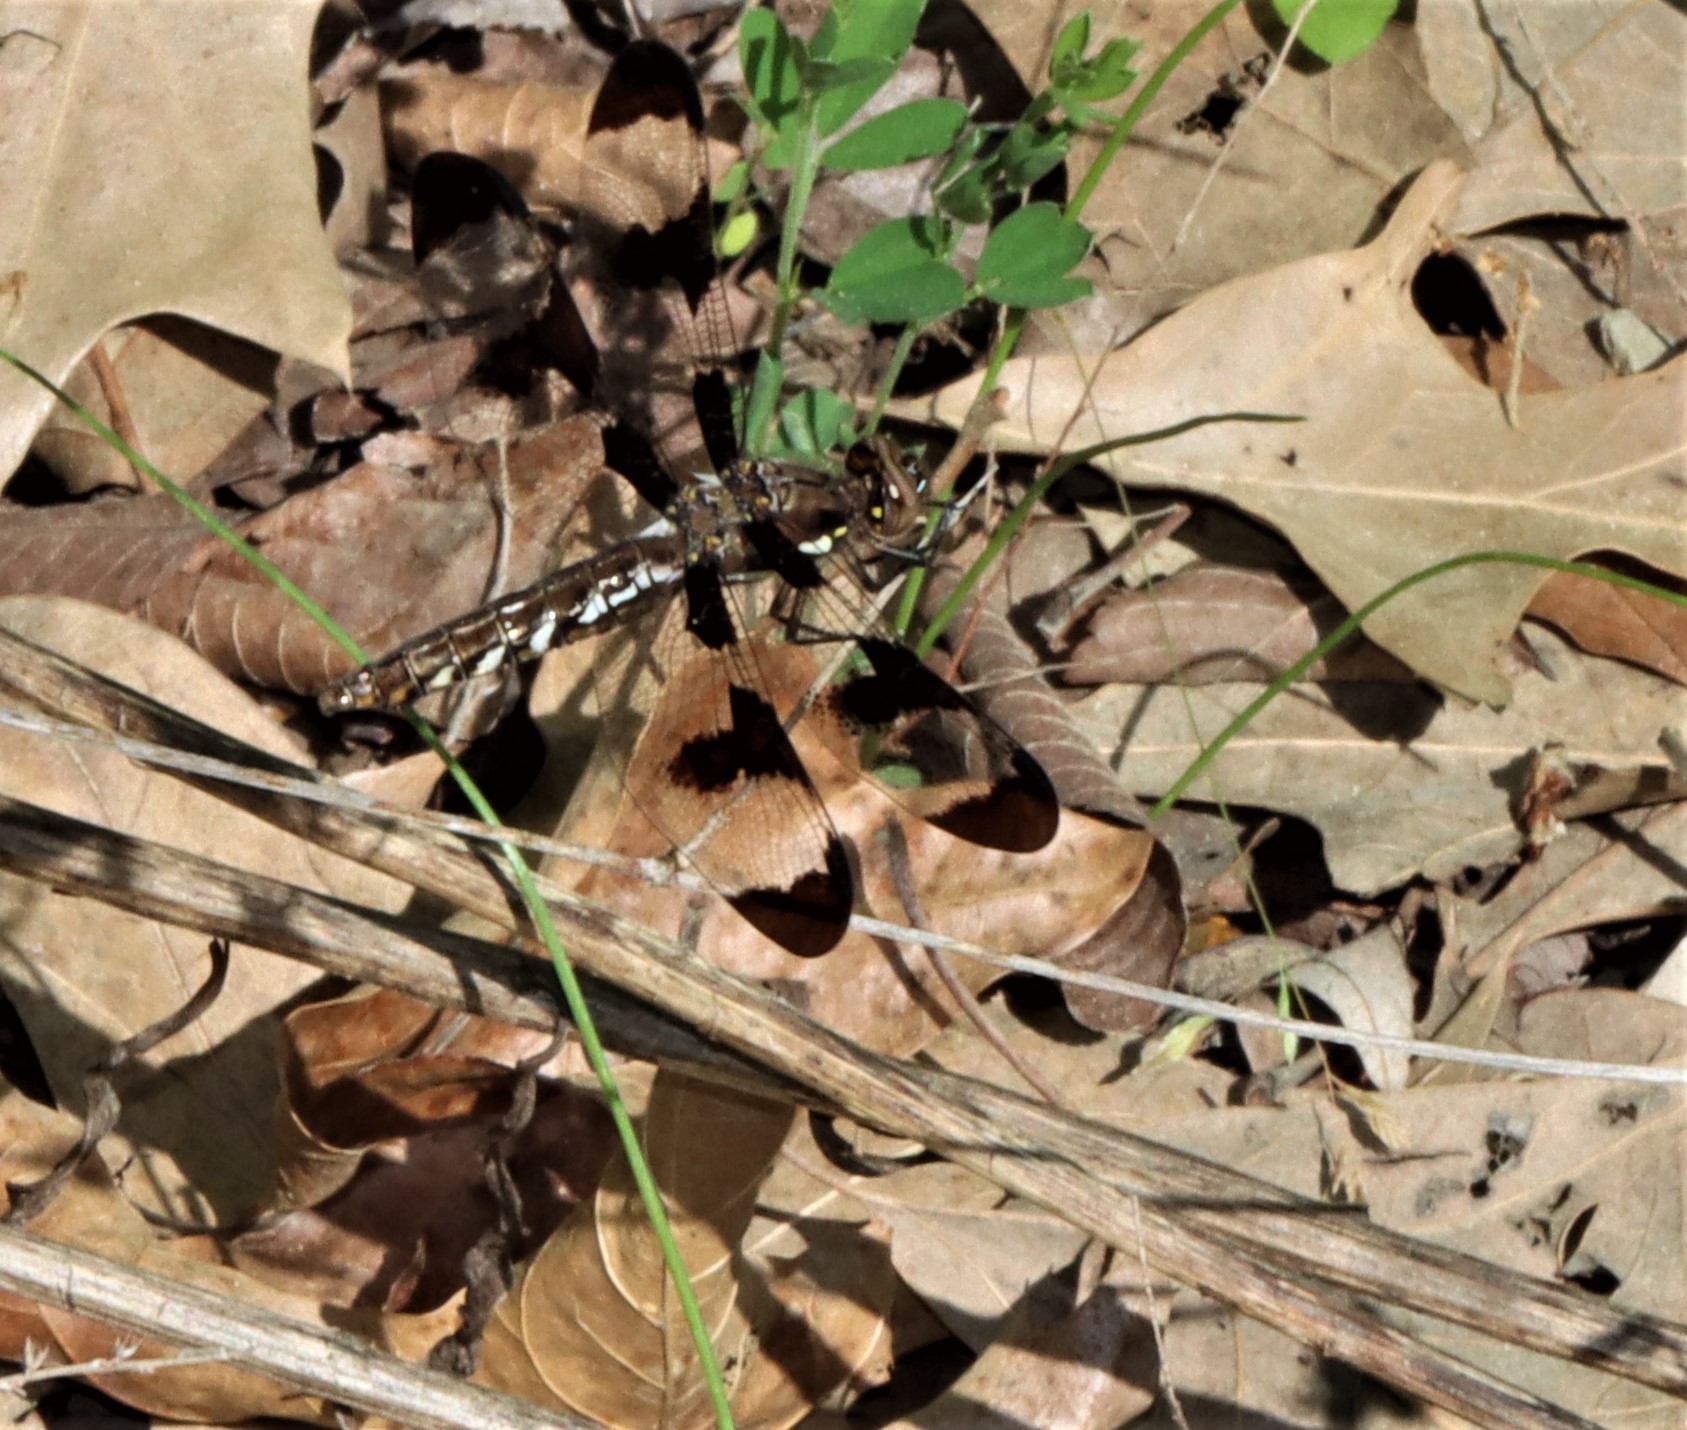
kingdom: Animalia
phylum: Arthropoda
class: Insecta
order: Odonata
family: Libellulidae
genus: Plathemis
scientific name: Plathemis lydia
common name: Common whitetail
